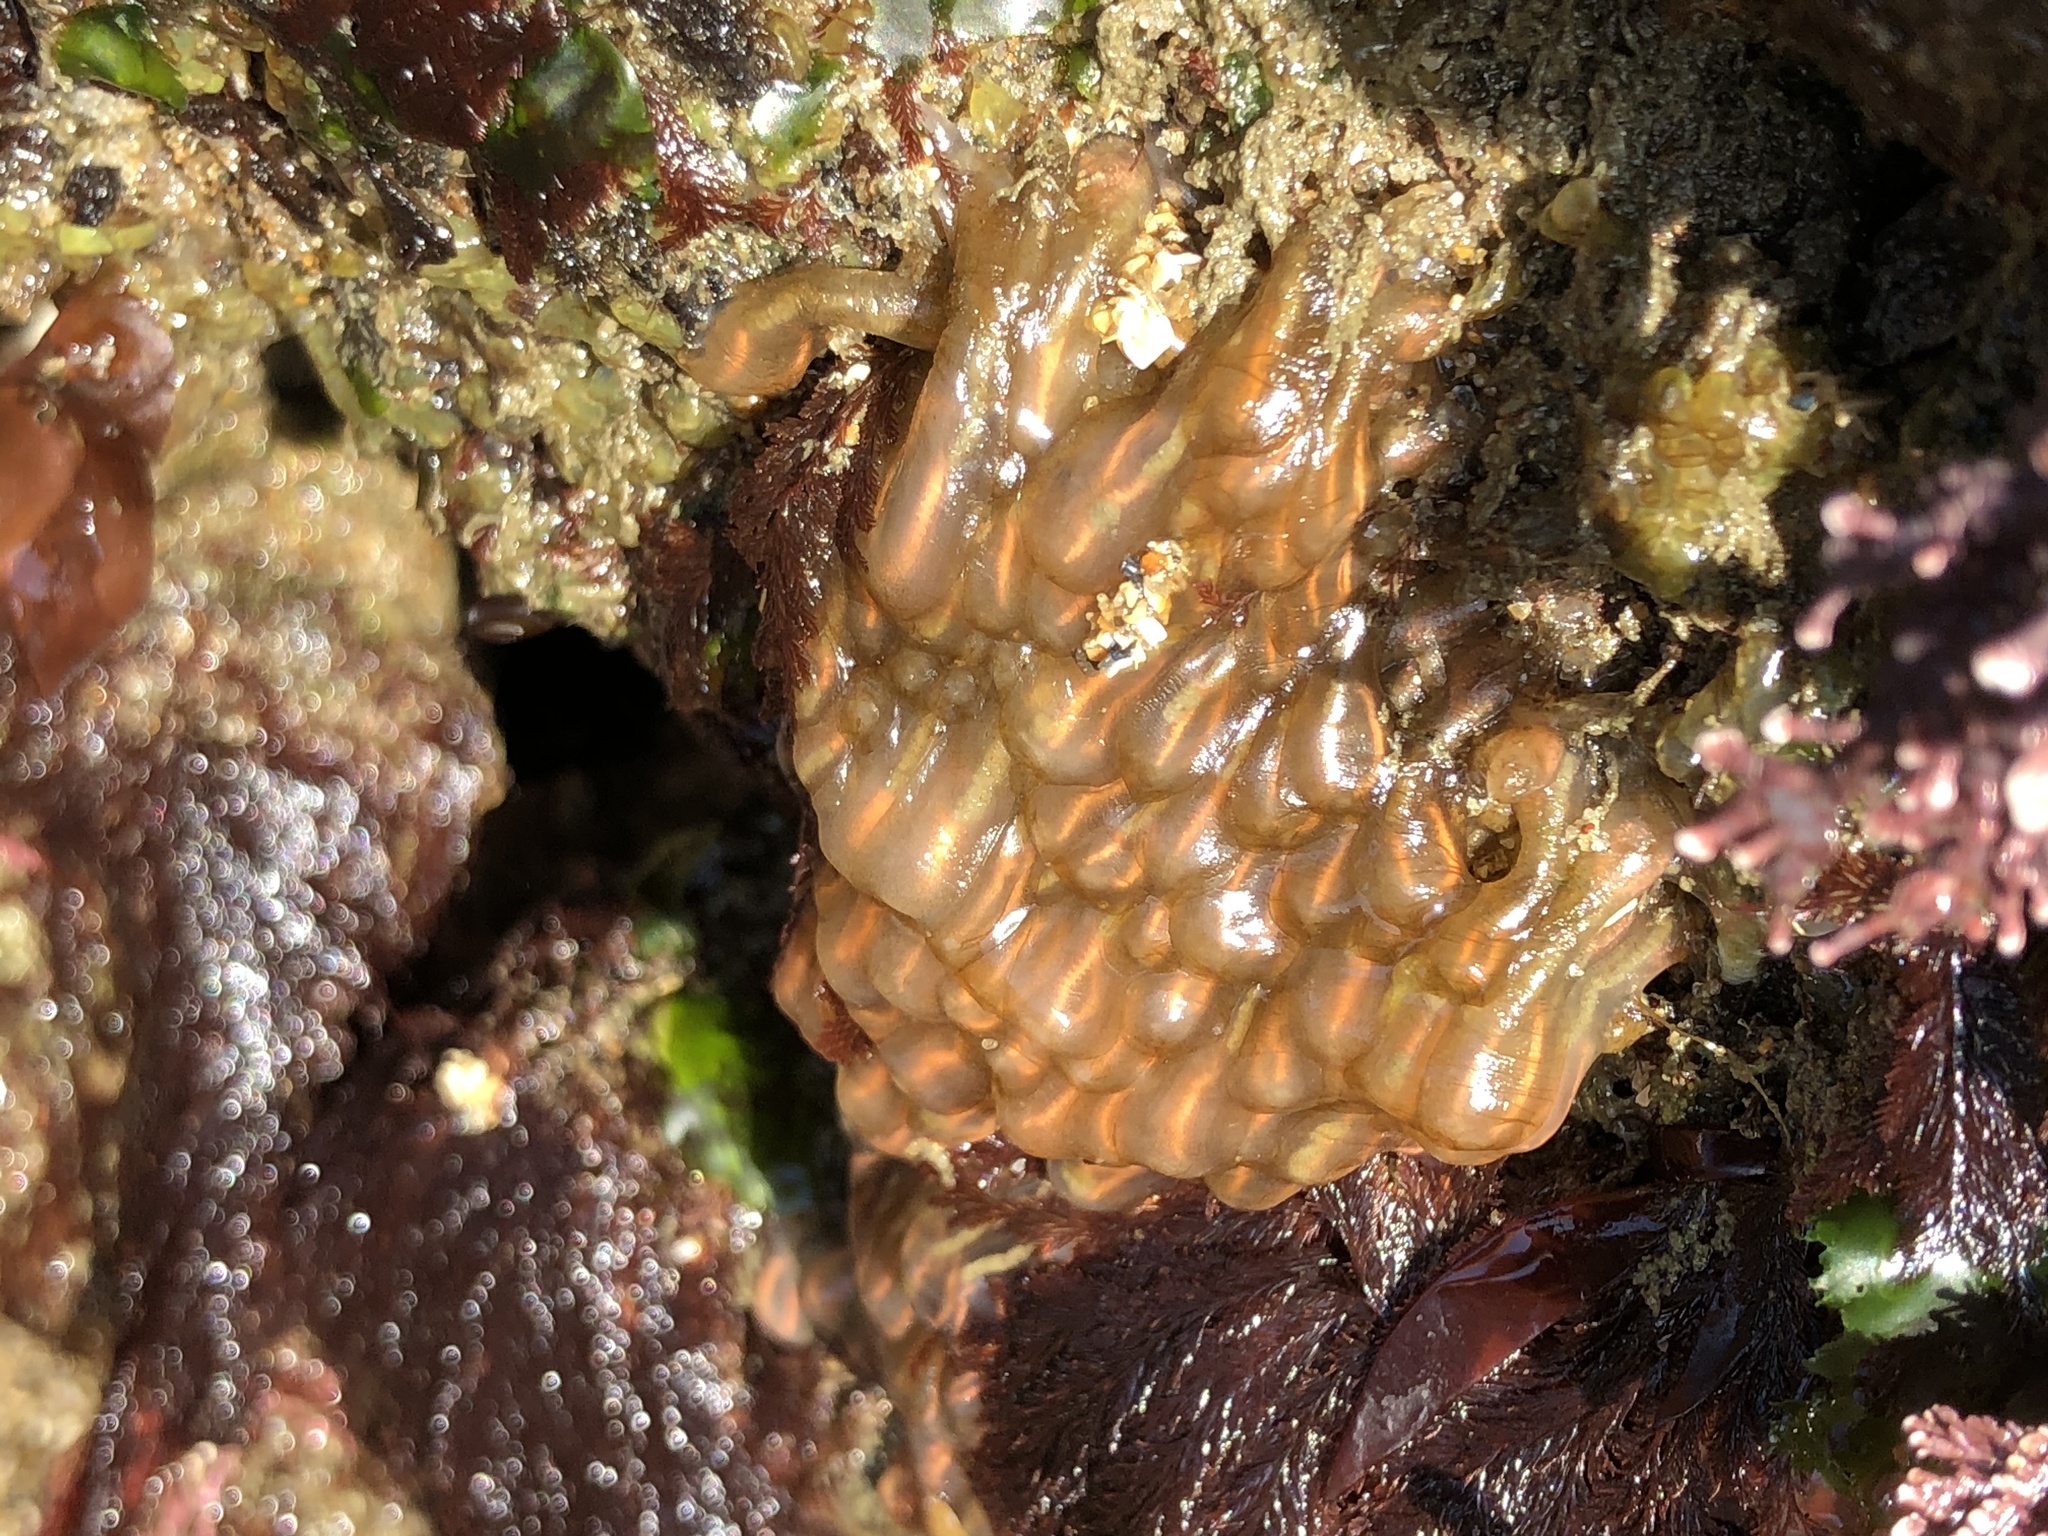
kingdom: Animalia
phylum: Chordata
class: Ascidiacea
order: Aplousobranchia
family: Clavelinidae
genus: Clavelina
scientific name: Clavelina huntsmani
